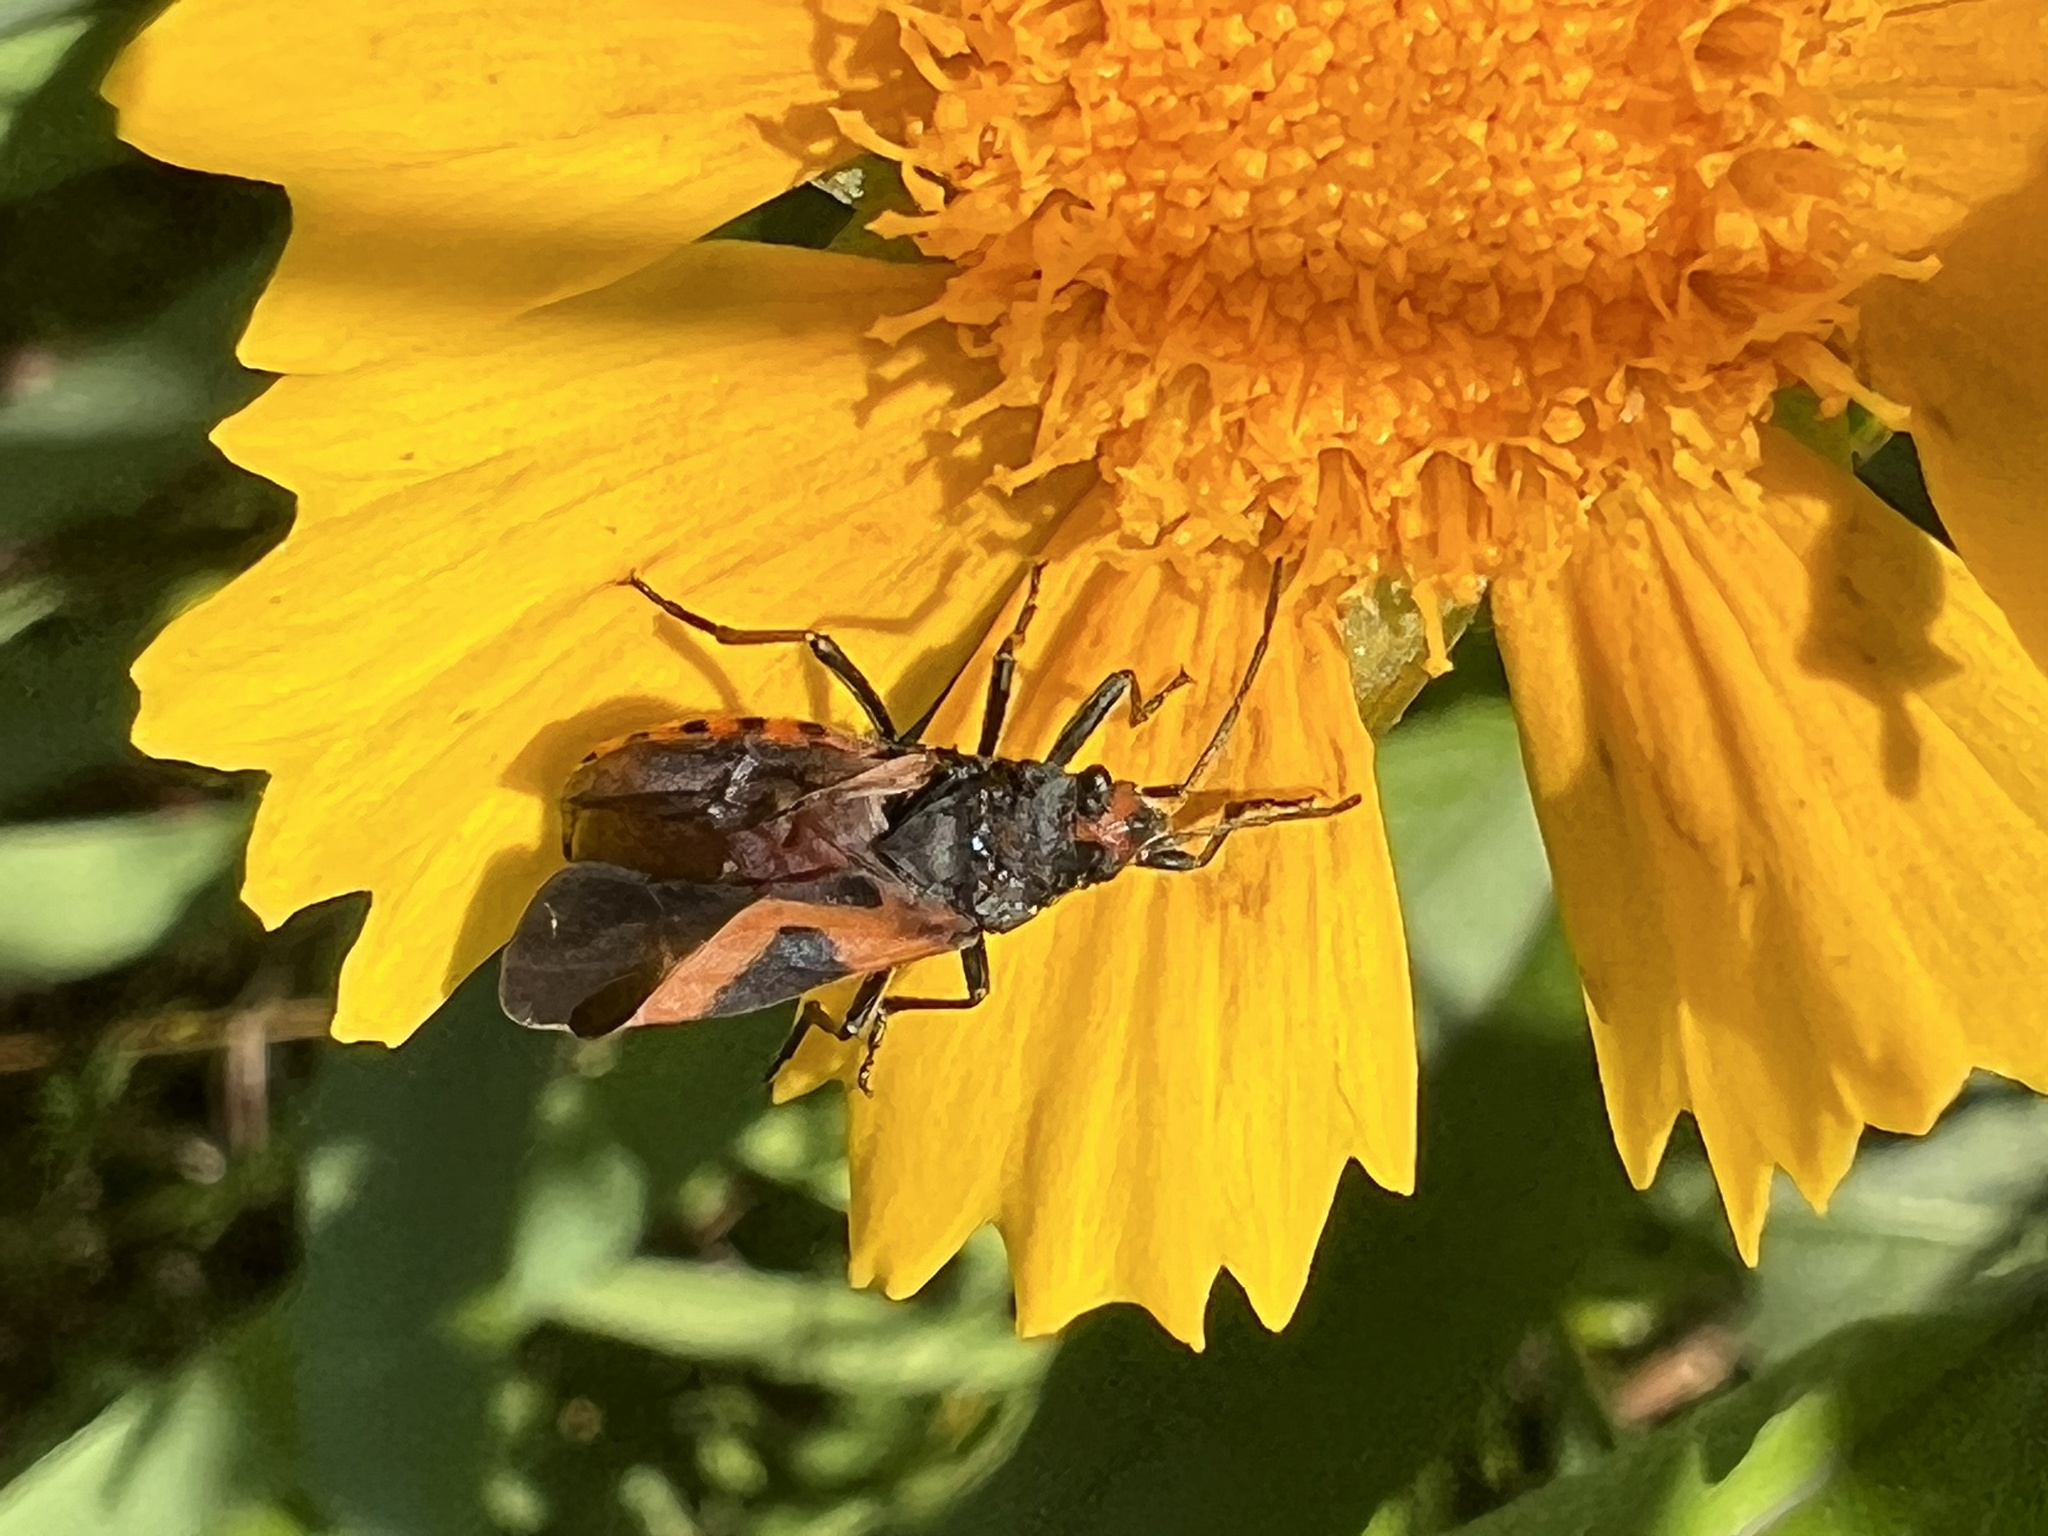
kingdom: Animalia
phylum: Arthropoda
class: Insecta
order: Hemiptera
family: Lygaeidae
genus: Lygaeus
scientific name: Lygaeus turcicus
